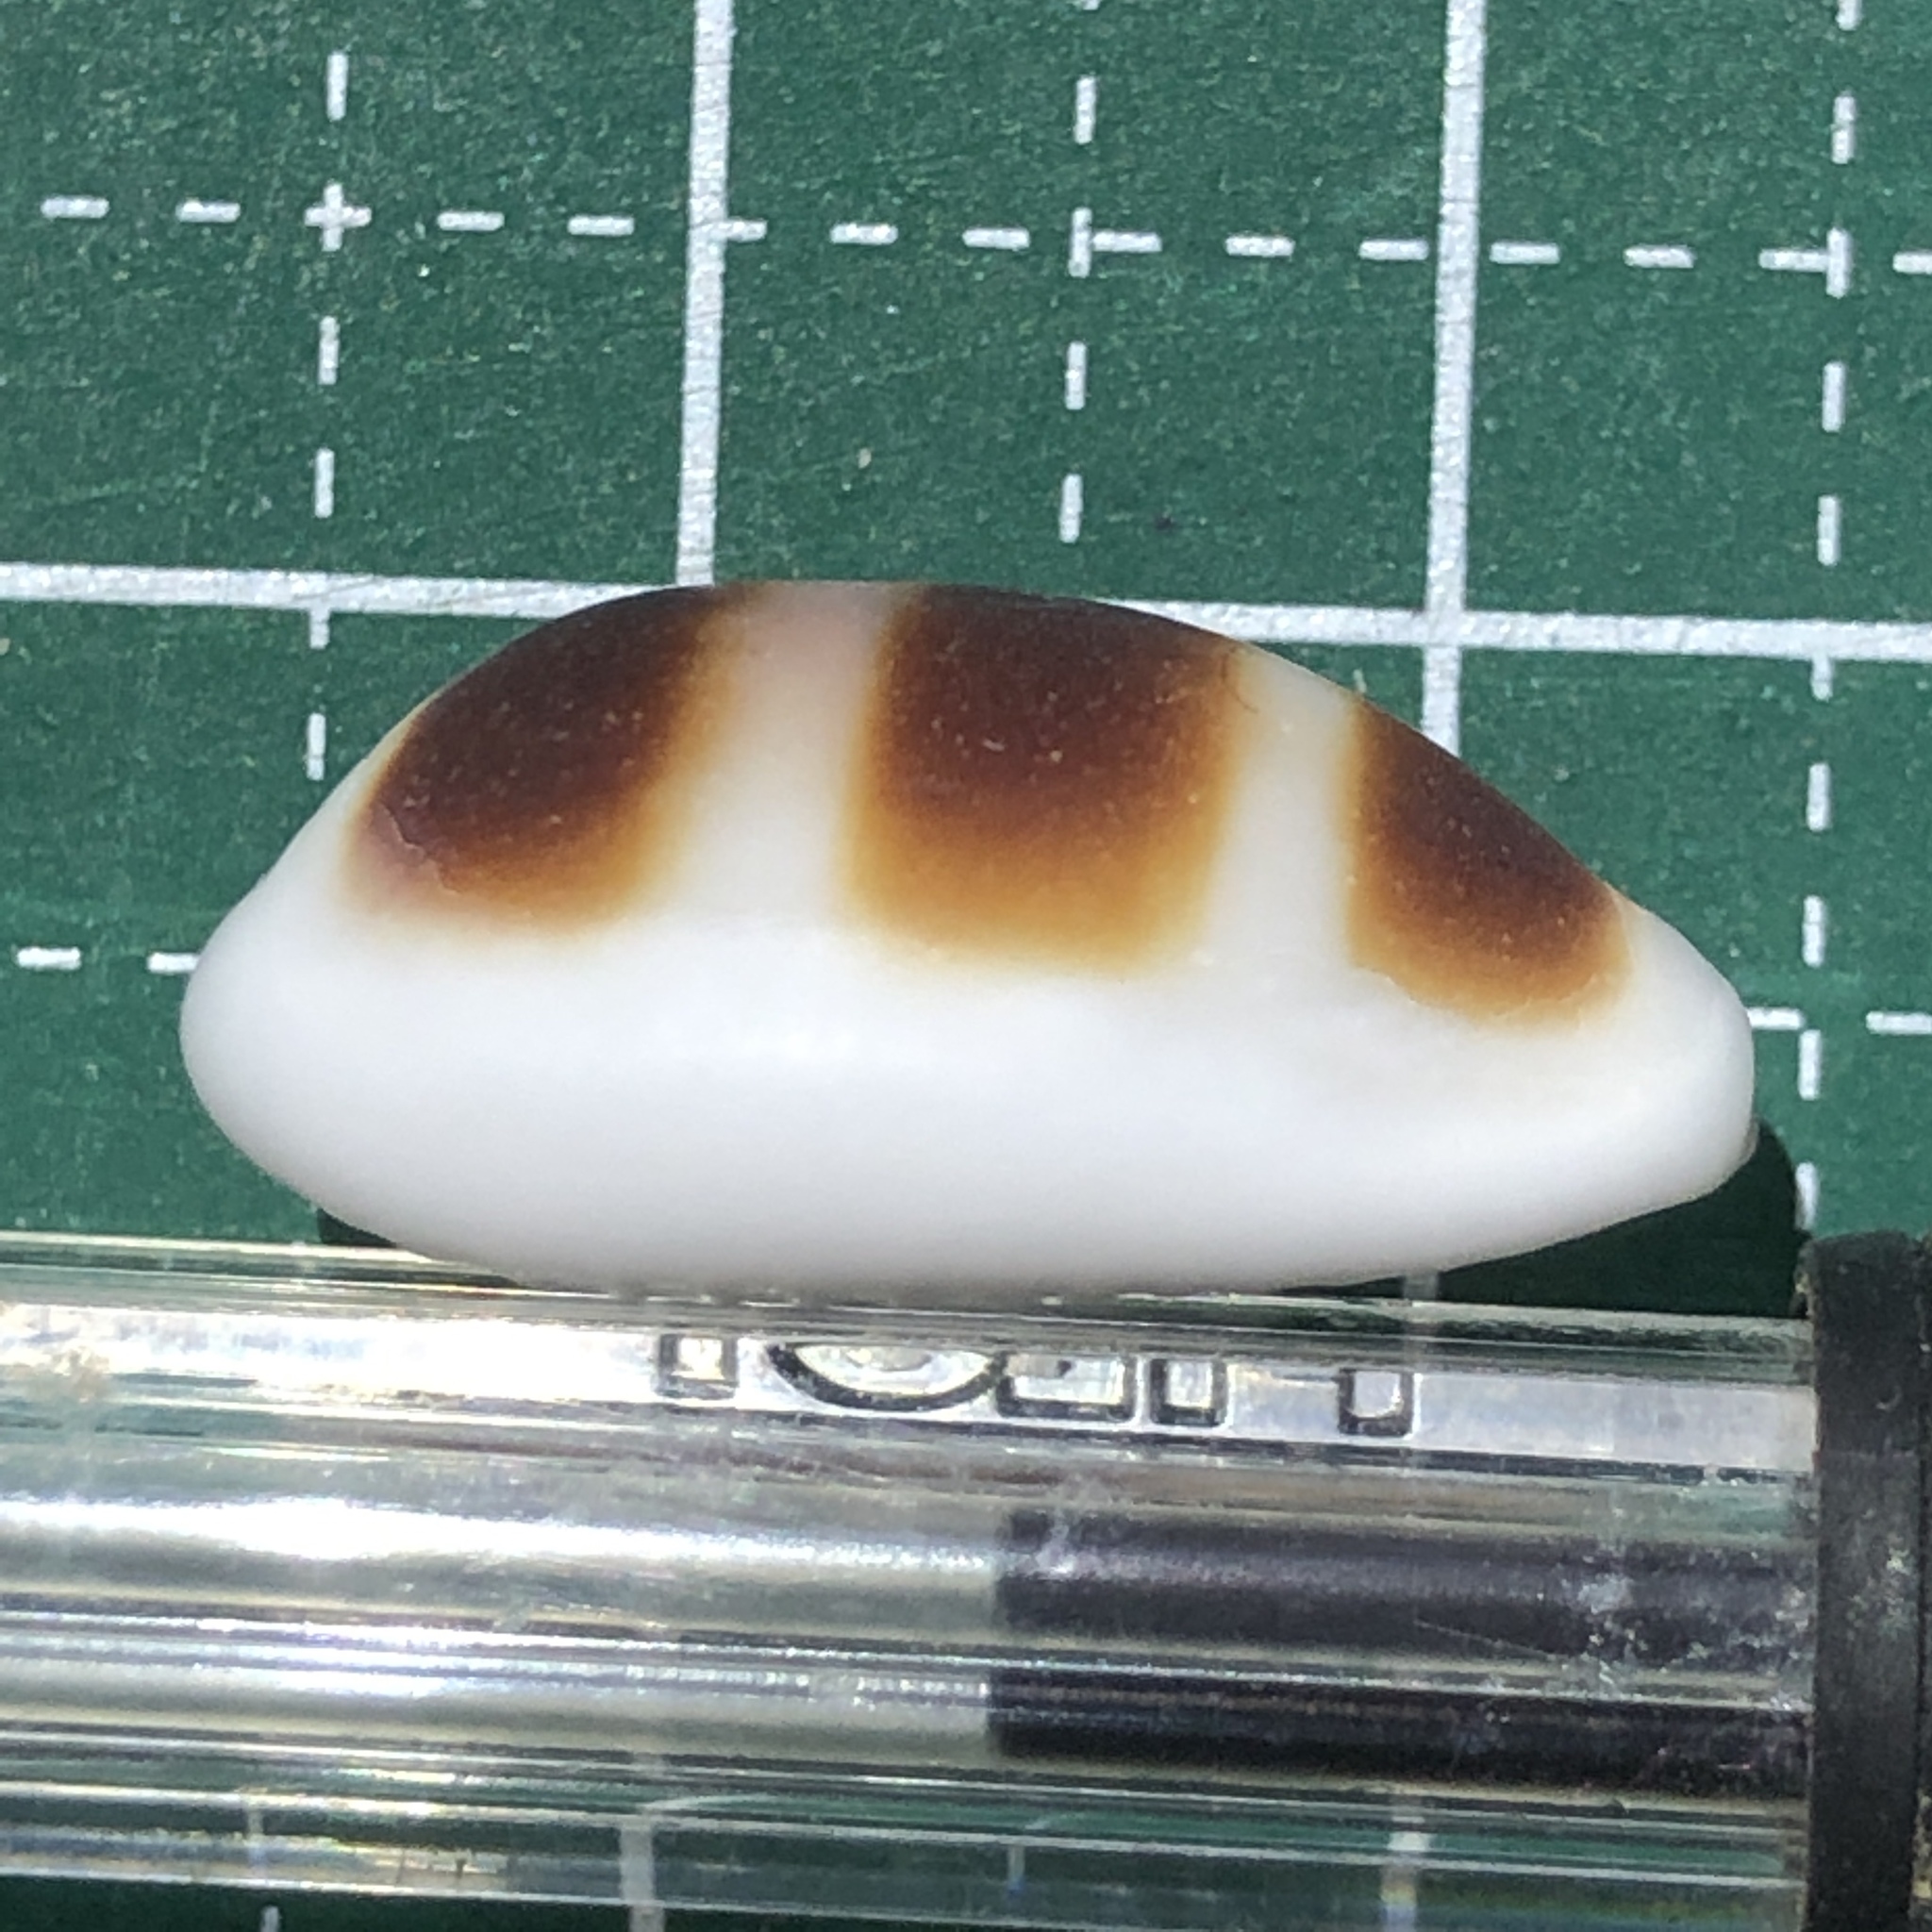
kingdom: Animalia
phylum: Mollusca
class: Gastropoda
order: Littorinimorpha
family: Cypraeidae
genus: Palmadusta
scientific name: Palmadusta asellus
